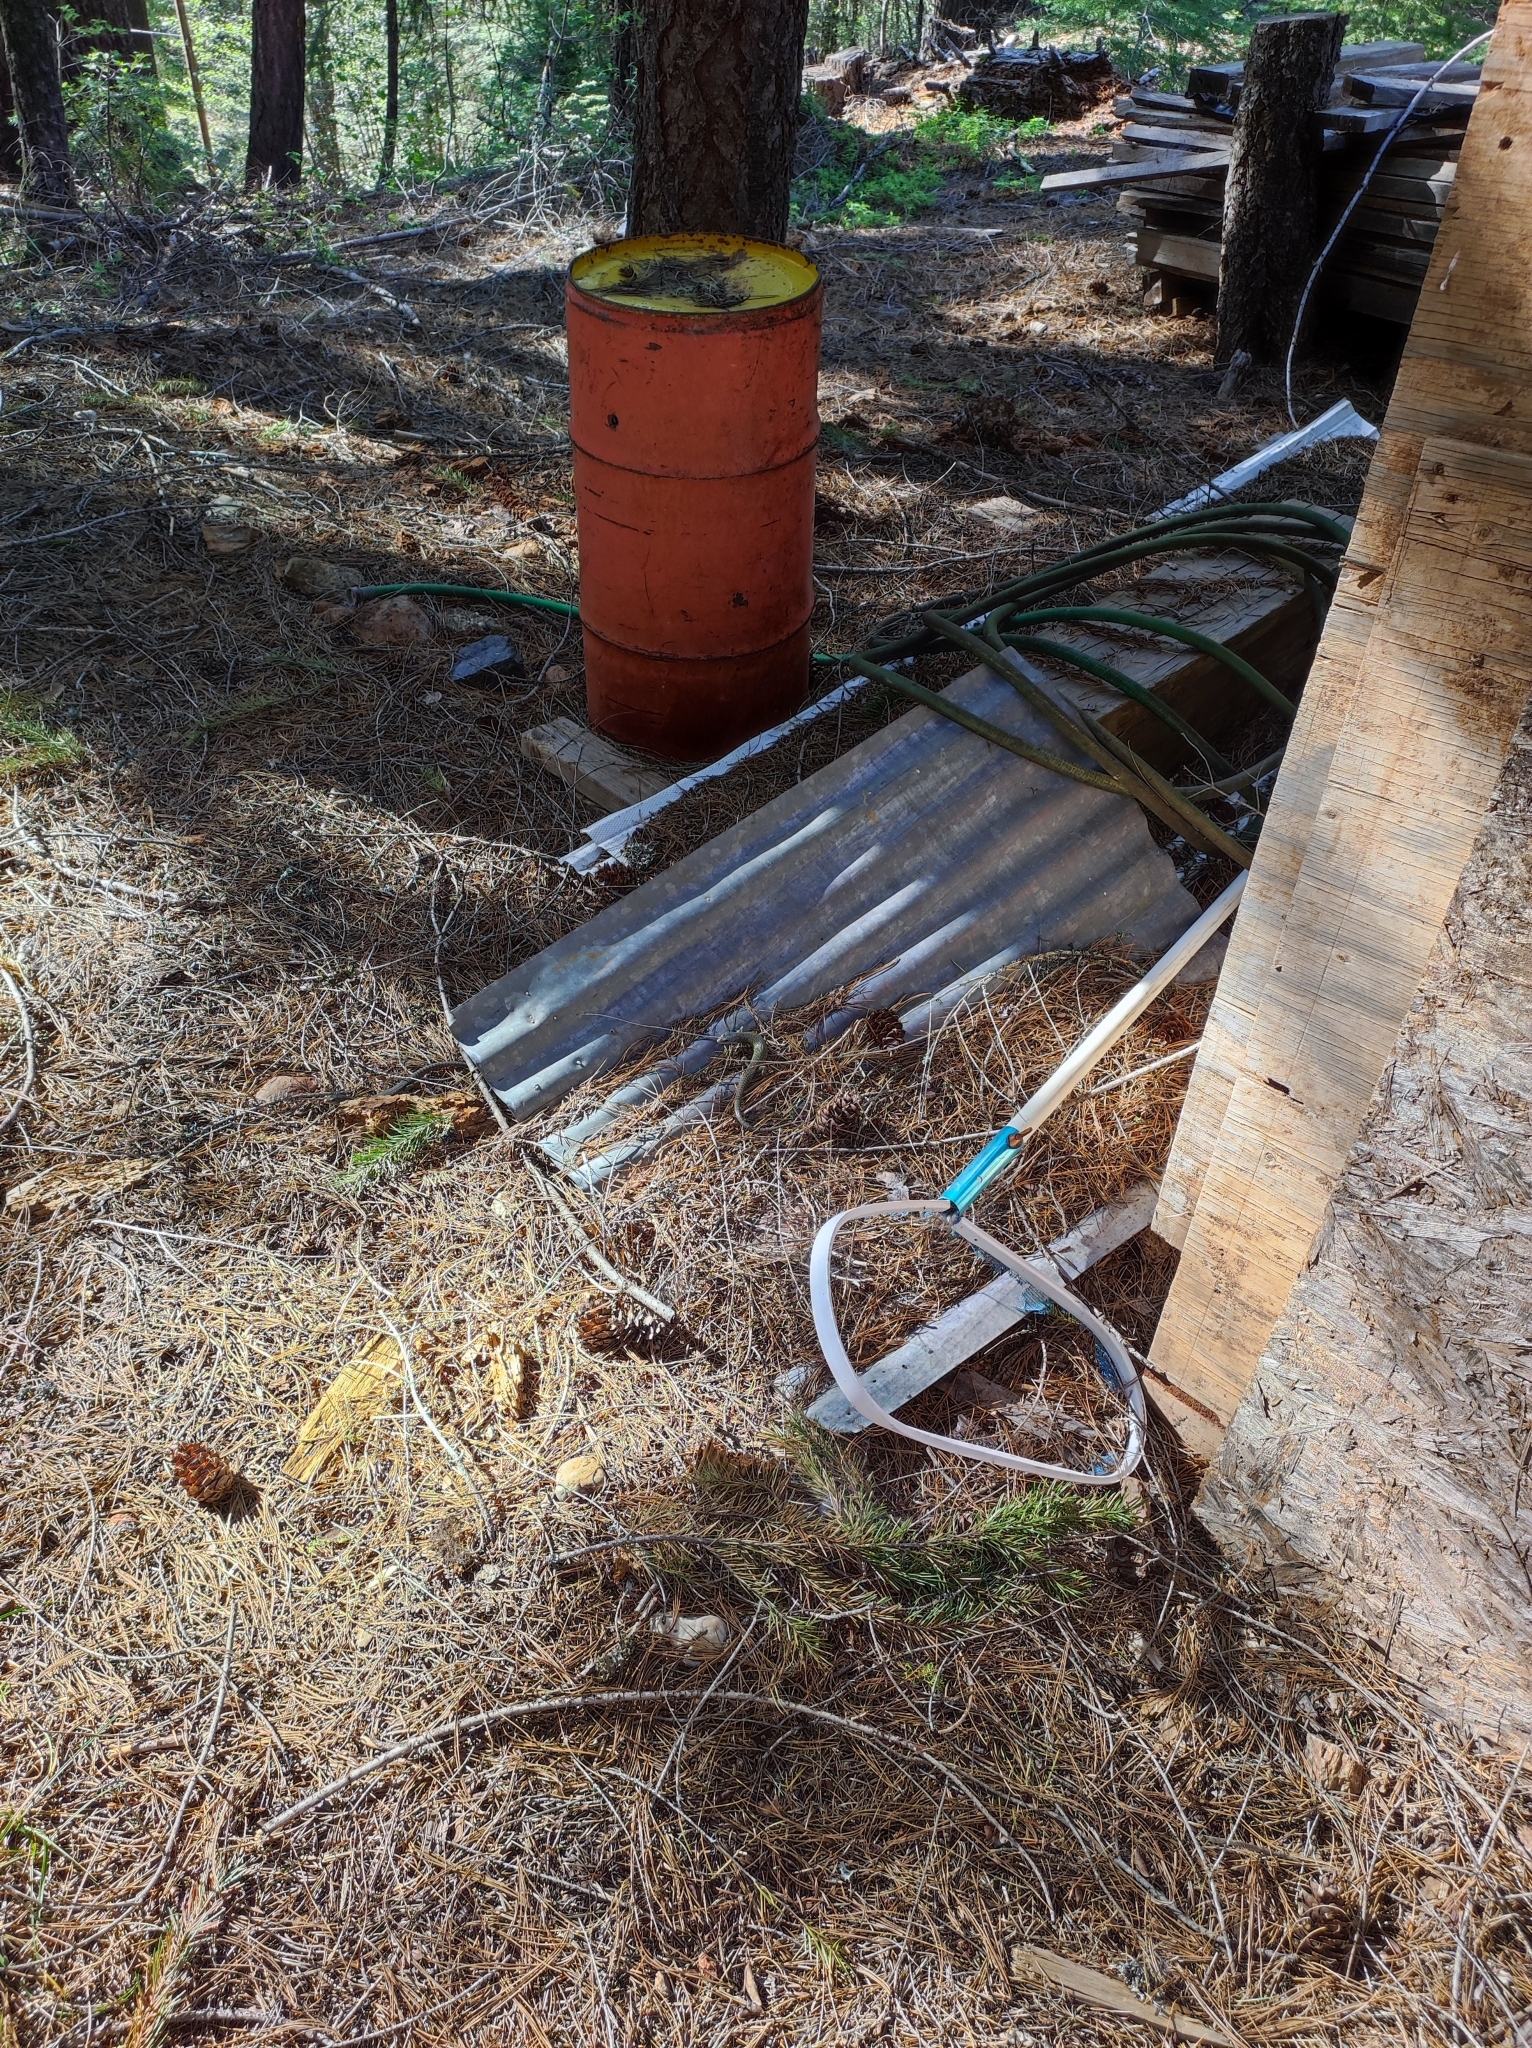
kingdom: Animalia
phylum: Chordata
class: Squamata
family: Anguidae
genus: Elgaria
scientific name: Elgaria coerulea
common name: Northern alligator lizard
